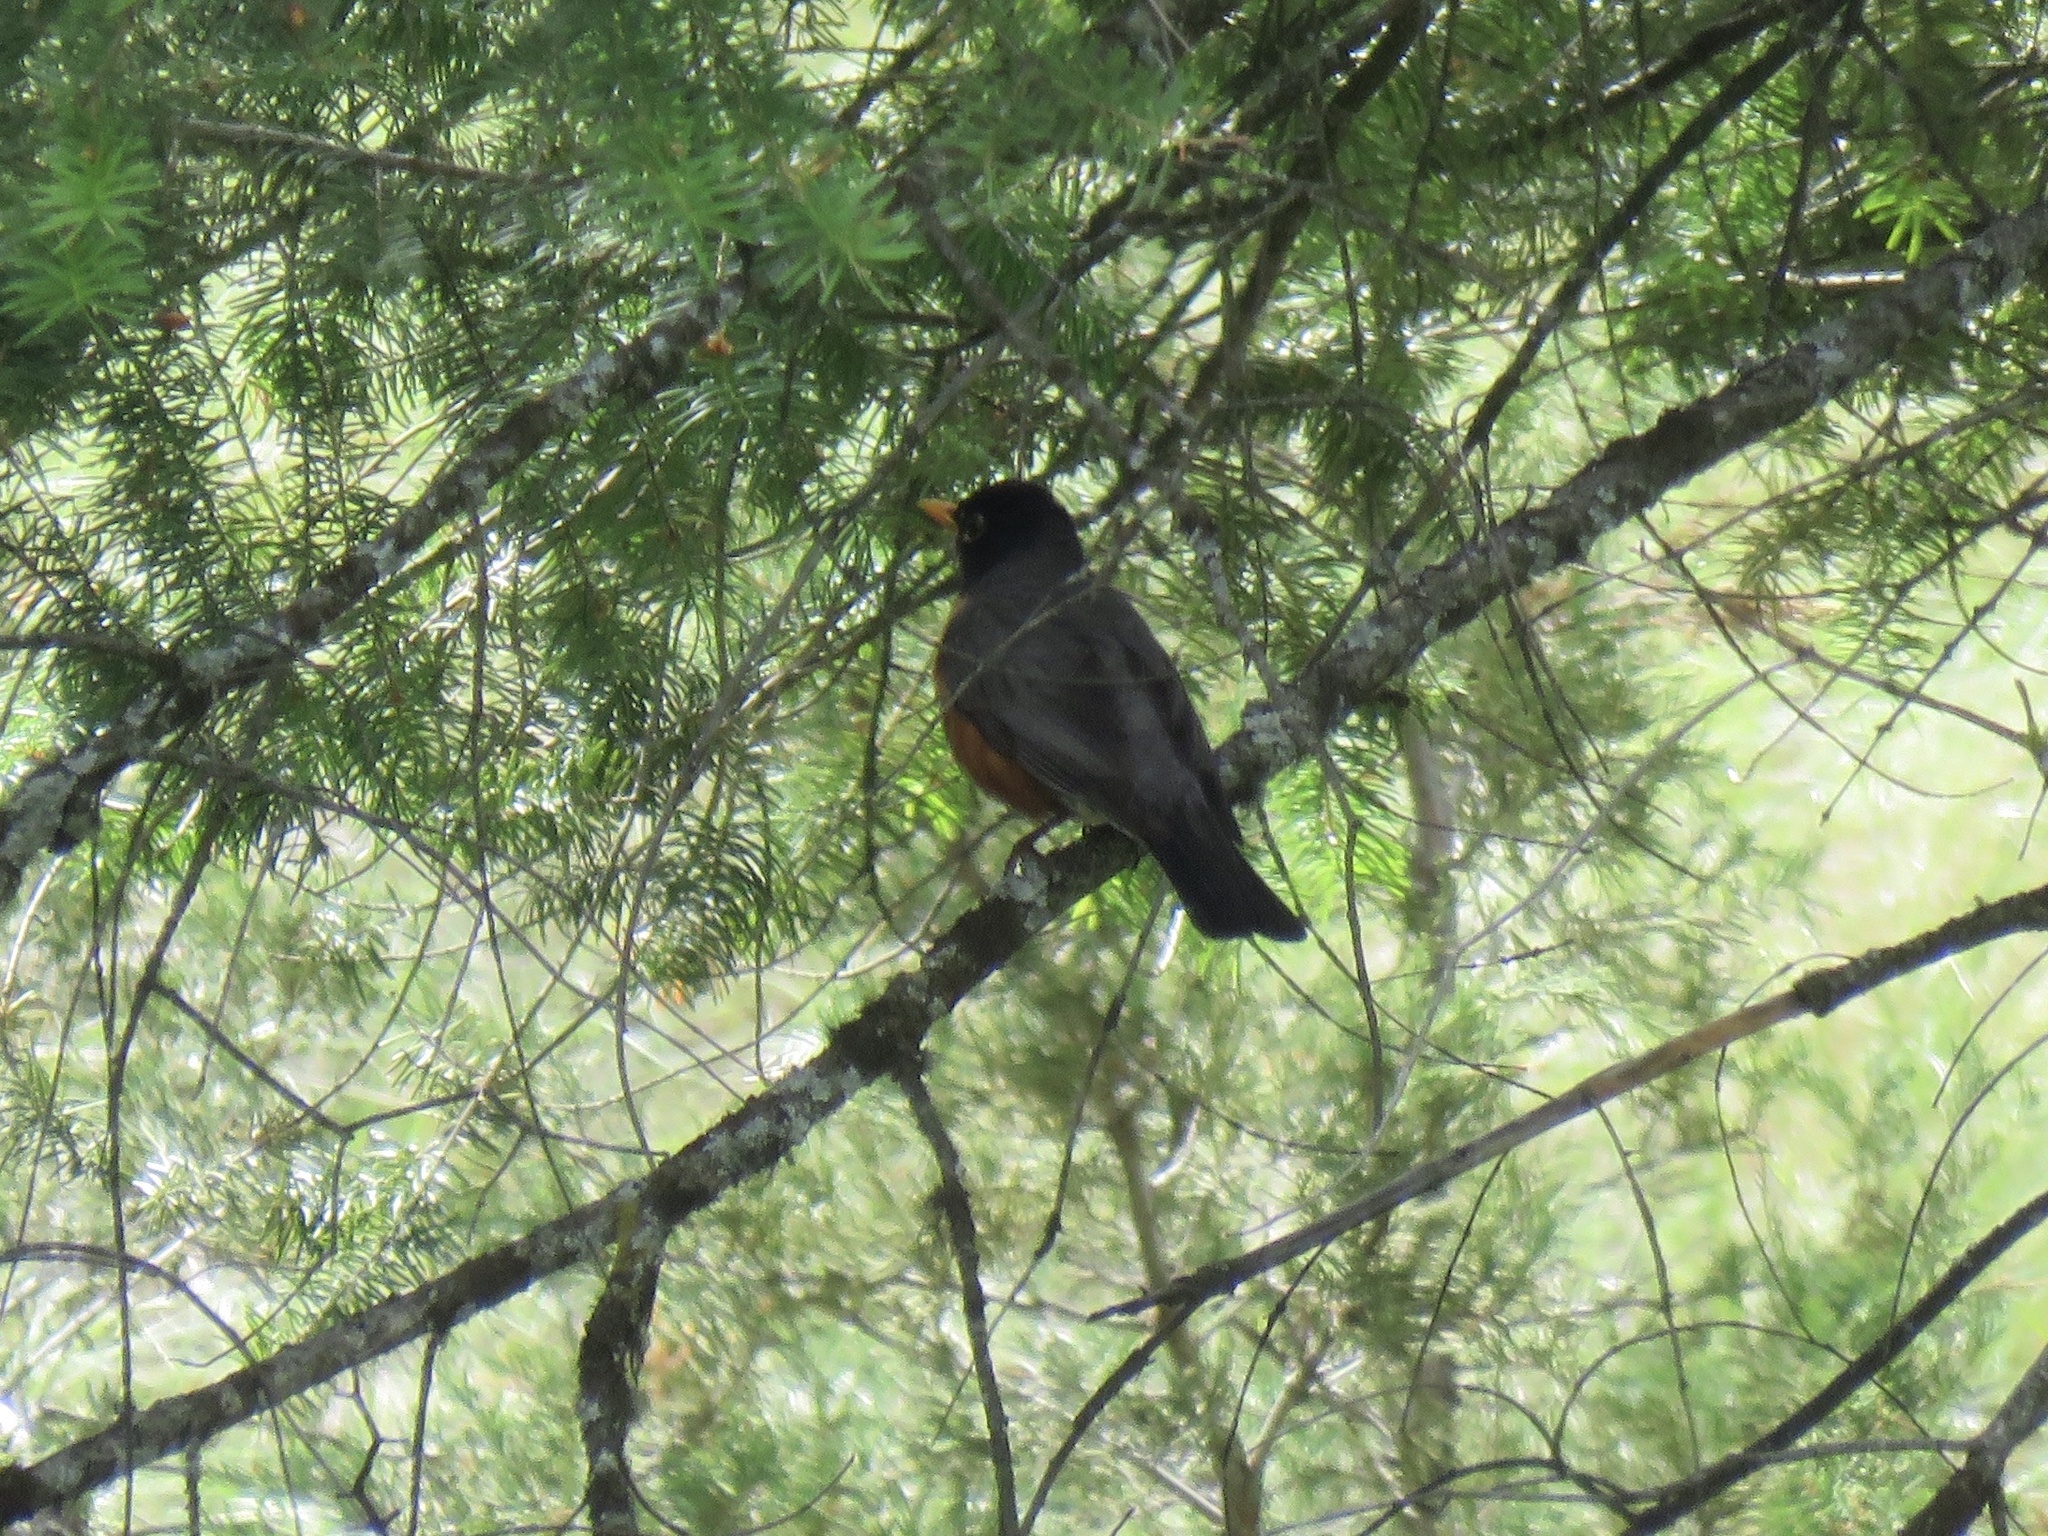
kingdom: Animalia
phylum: Chordata
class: Aves
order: Passeriformes
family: Turdidae
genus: Turdus
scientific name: Turdus migratorius
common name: American robin
